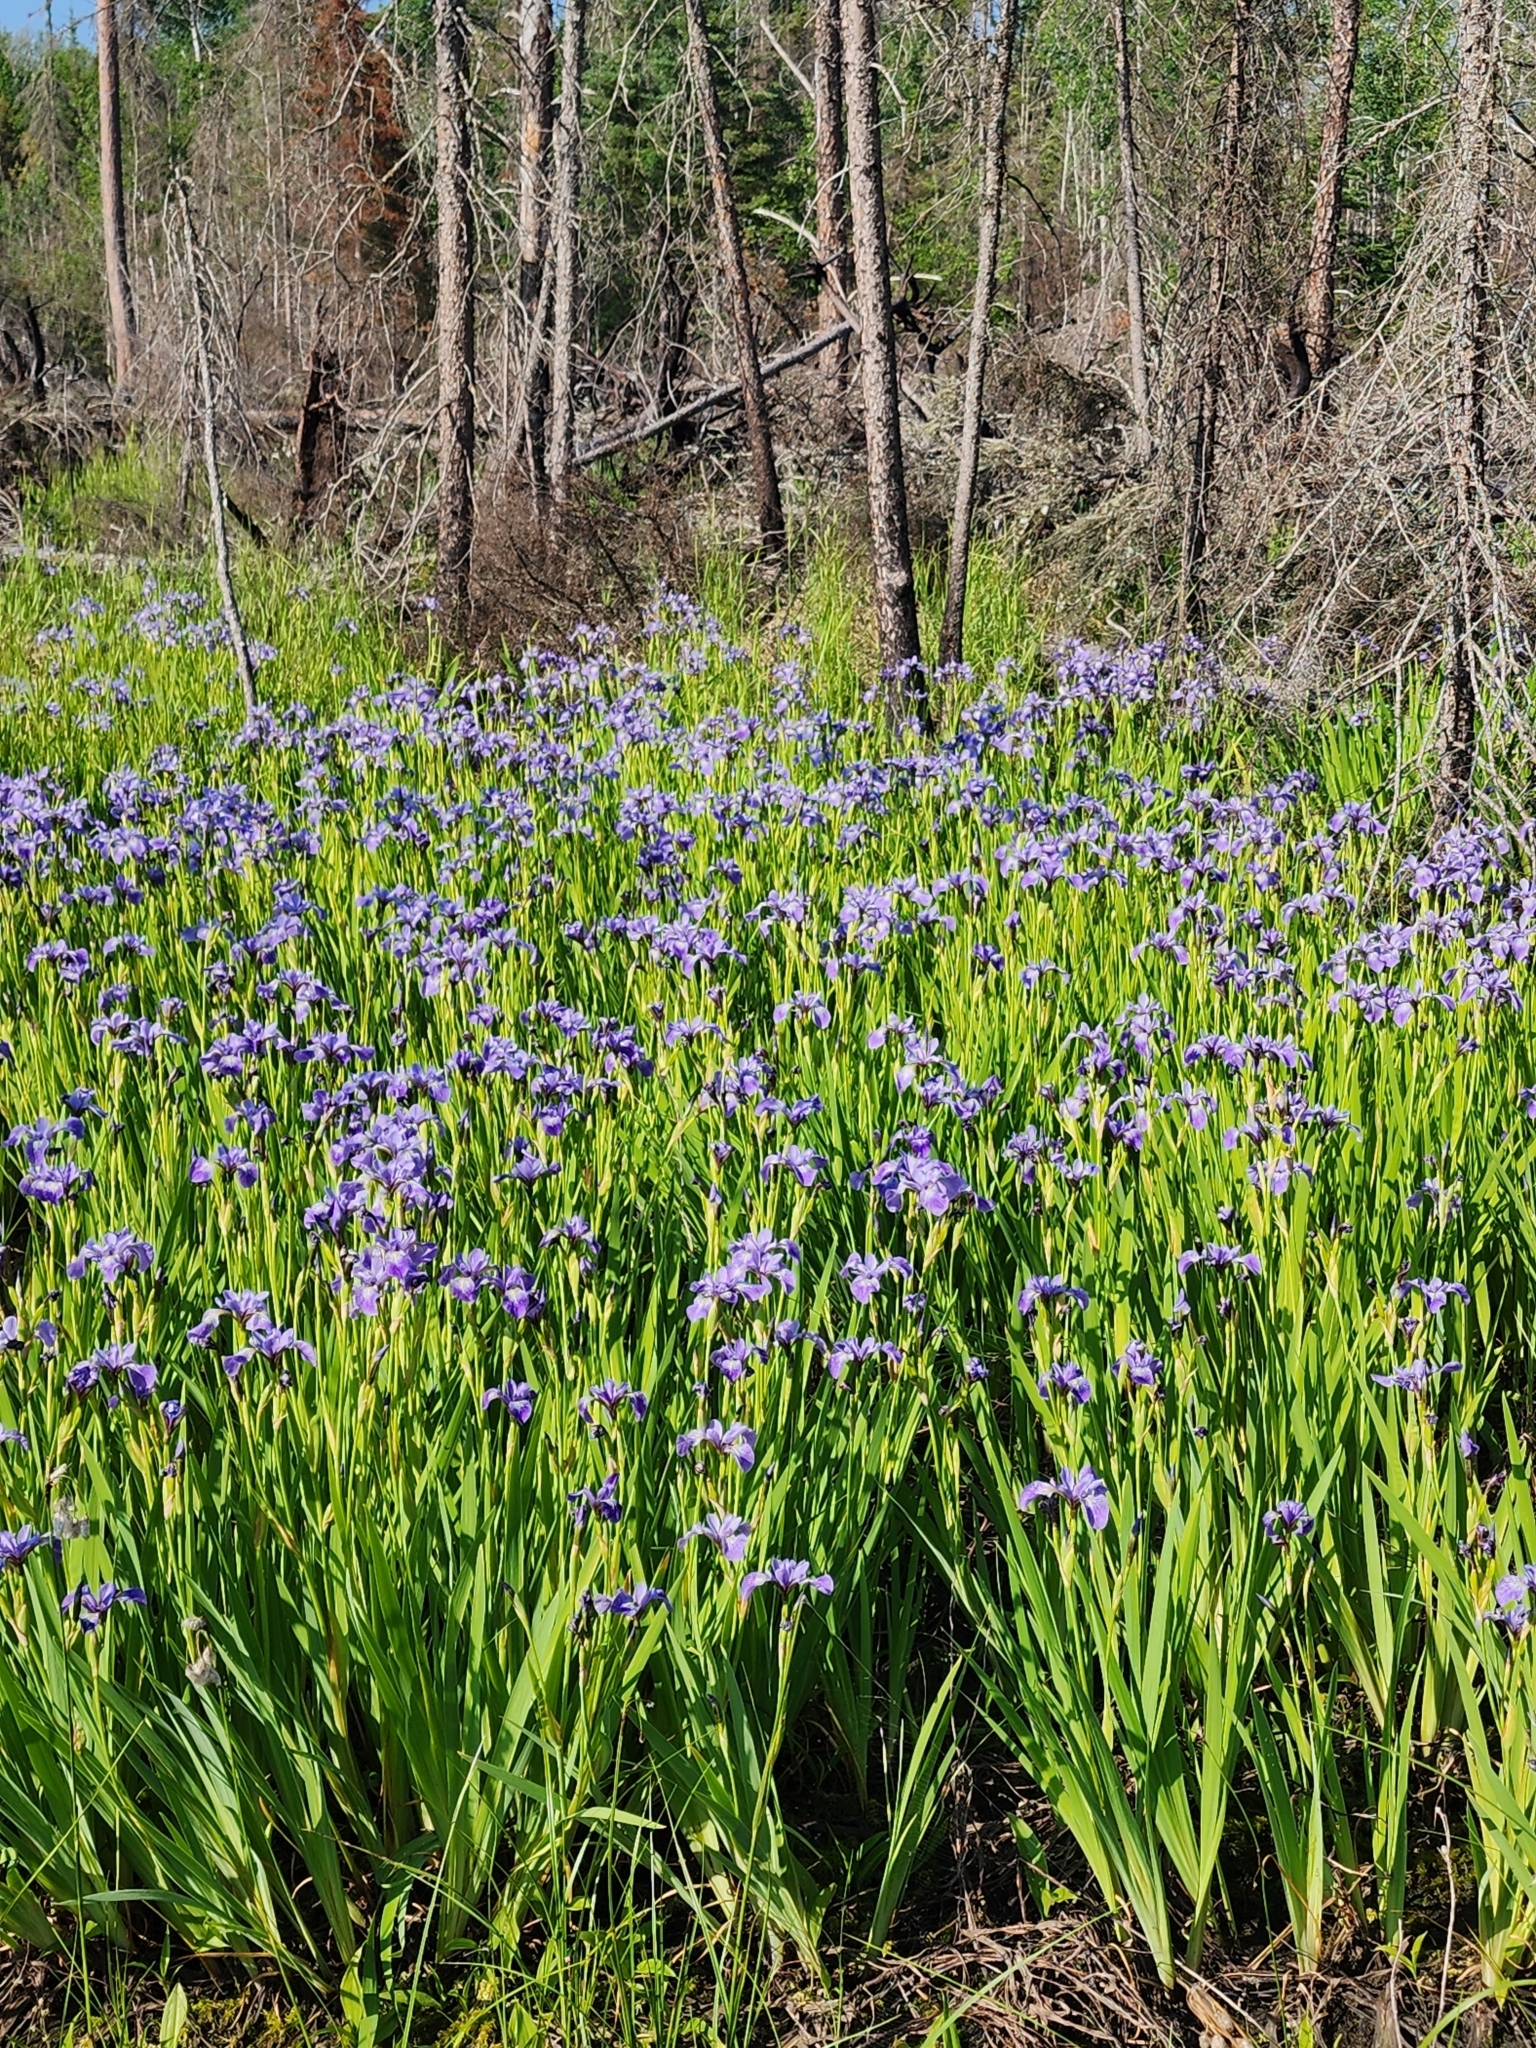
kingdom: Plantae
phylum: Tracheophyta
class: Liliopsida
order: Asparagales
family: Iridaceae
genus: Iris
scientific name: Iris versicolor
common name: Purple iris
